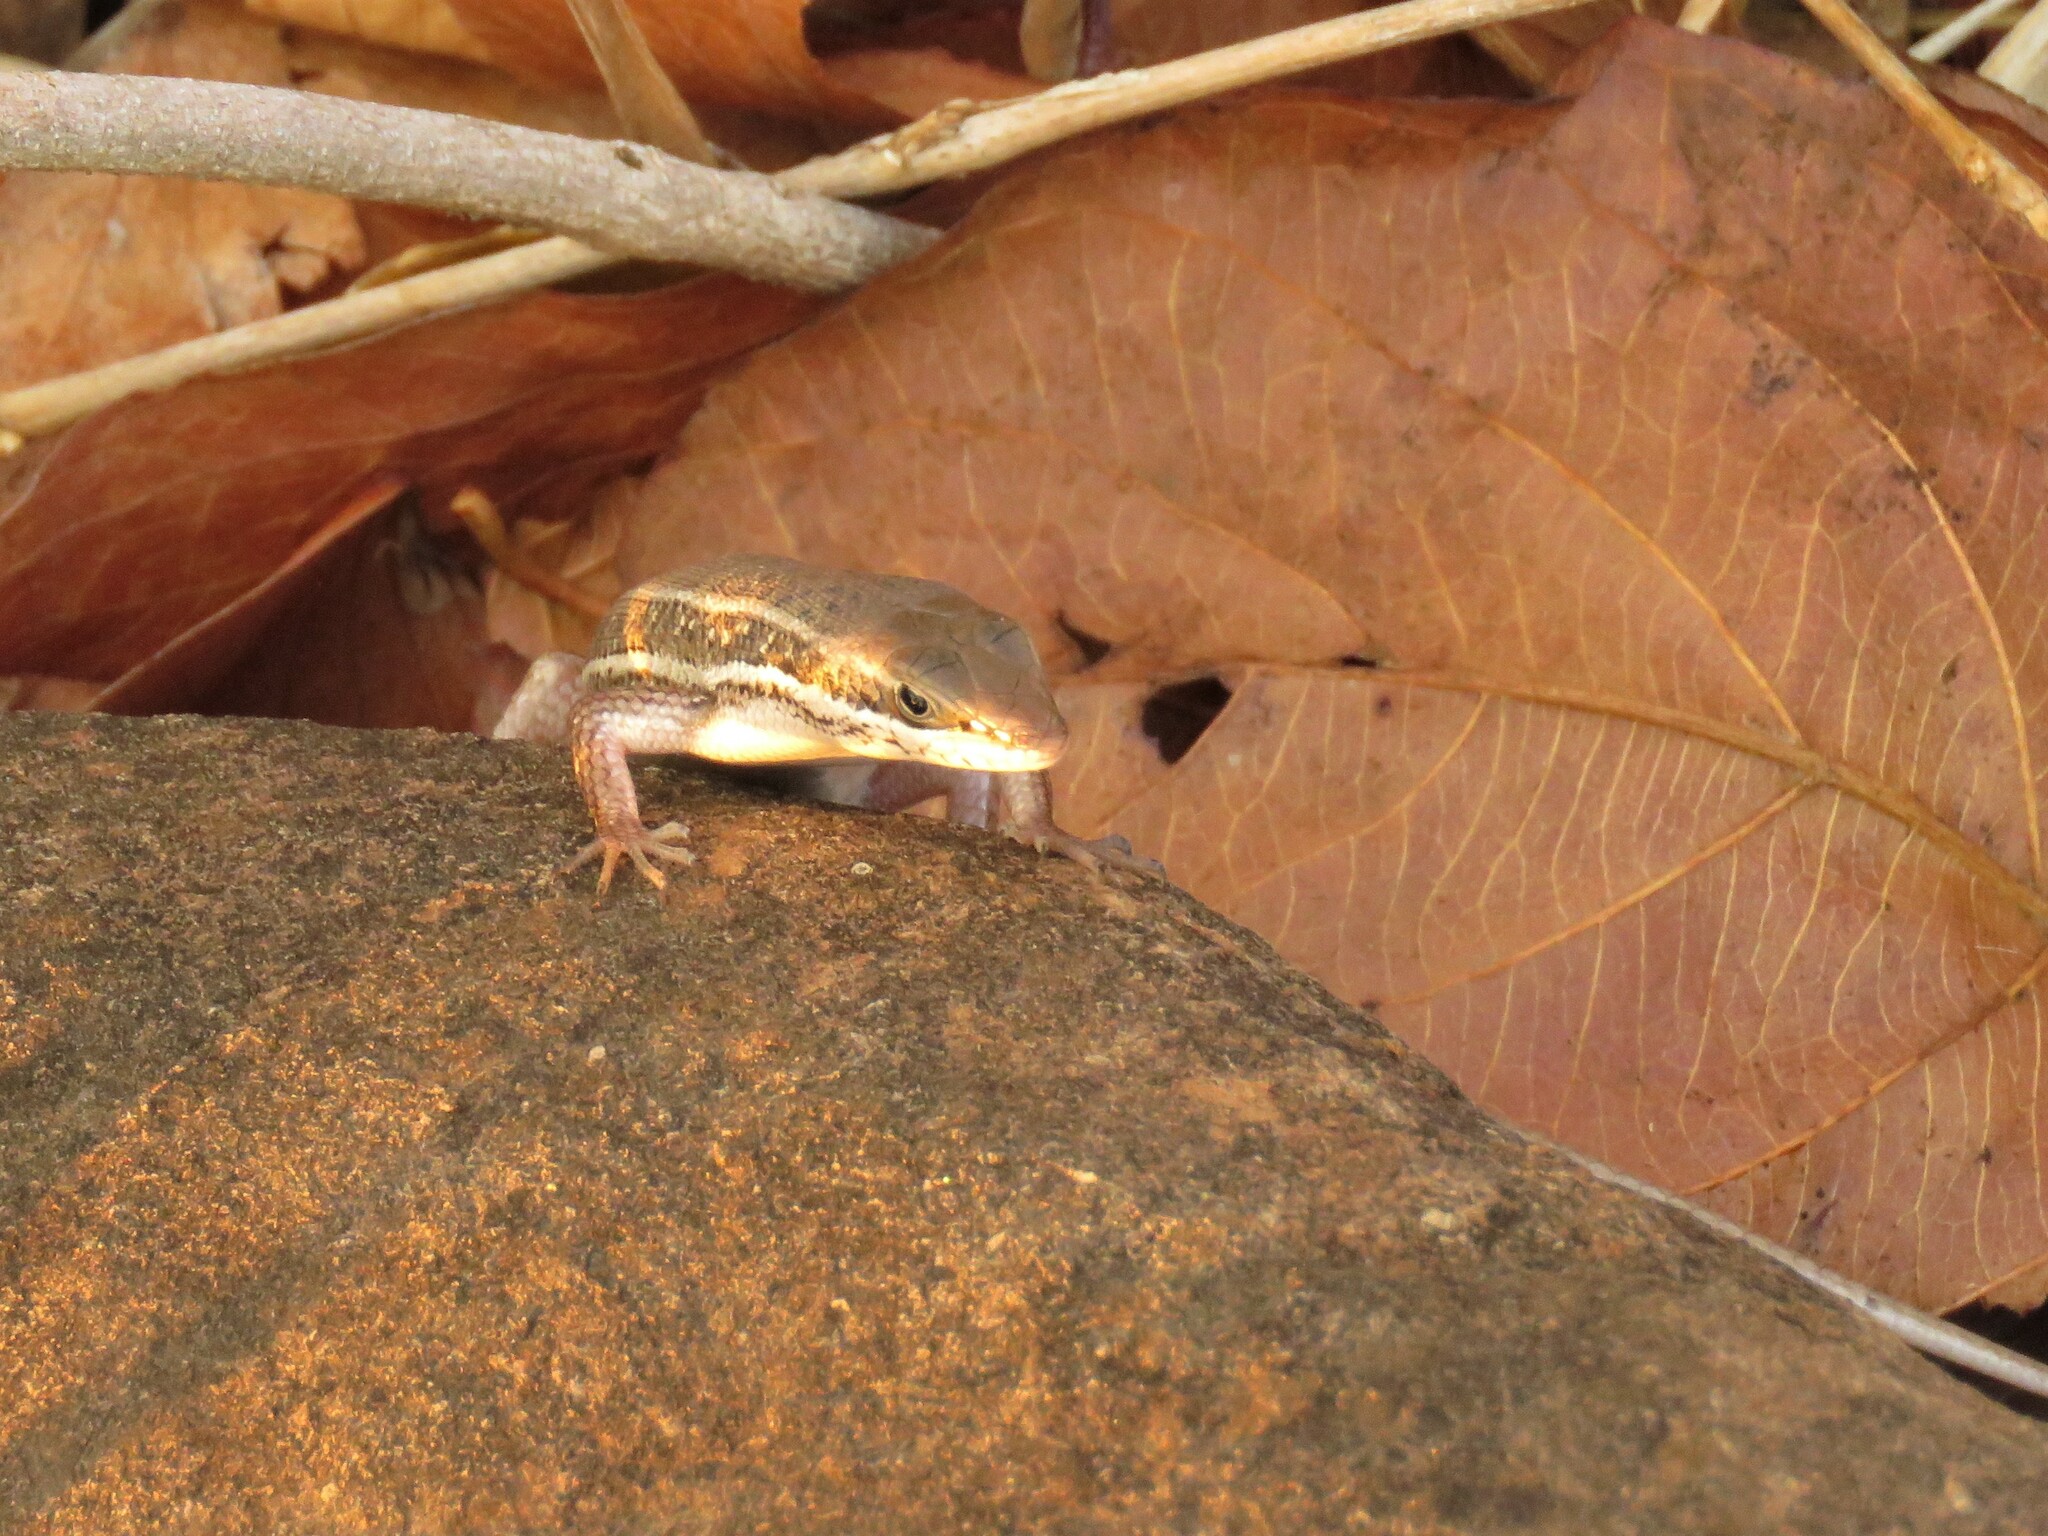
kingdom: Animalia
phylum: Chordata
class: Squamata
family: Scincidae
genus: Trachylepis
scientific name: Trachylepis varia
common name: Eastern variable skink
